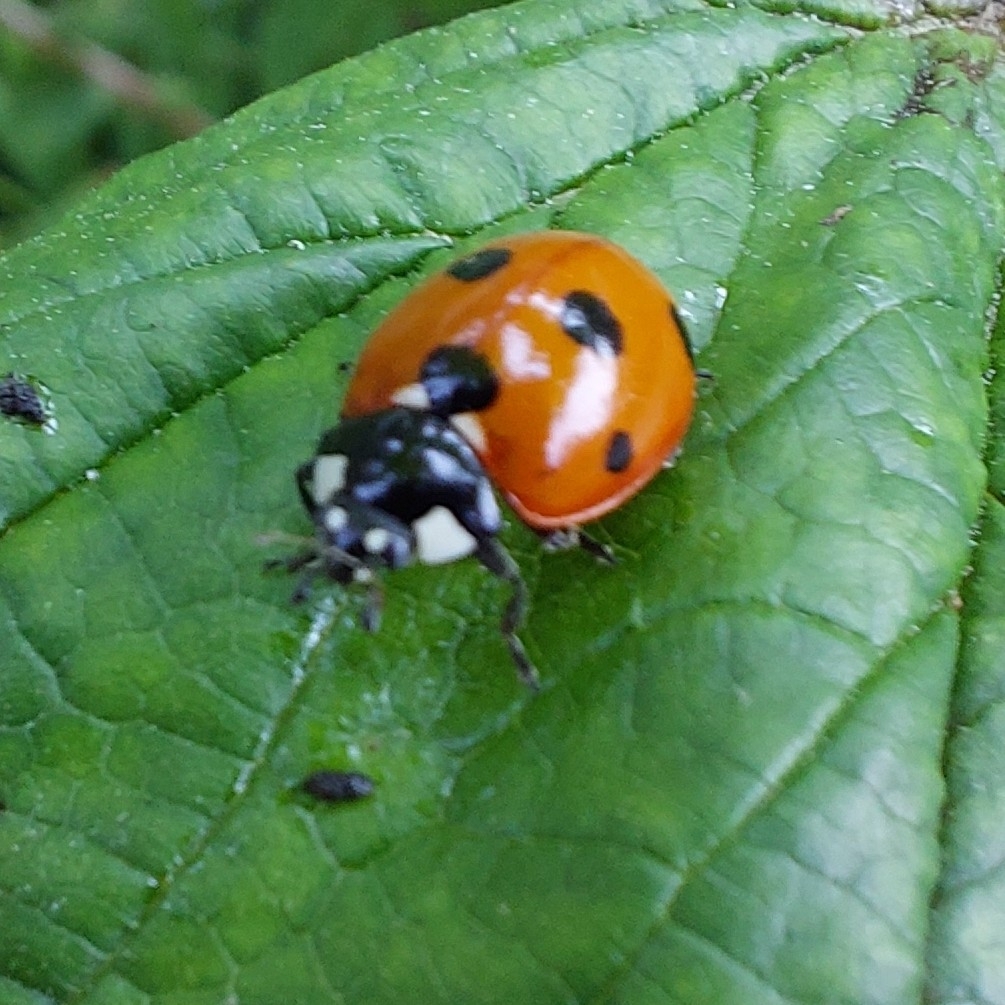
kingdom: Animalia
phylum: Arthropoda
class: Insecta
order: Coleoptera
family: Coccinellidae
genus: Coccinella
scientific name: Coccinella septempunctata
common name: Sevenspotted lady beetle
